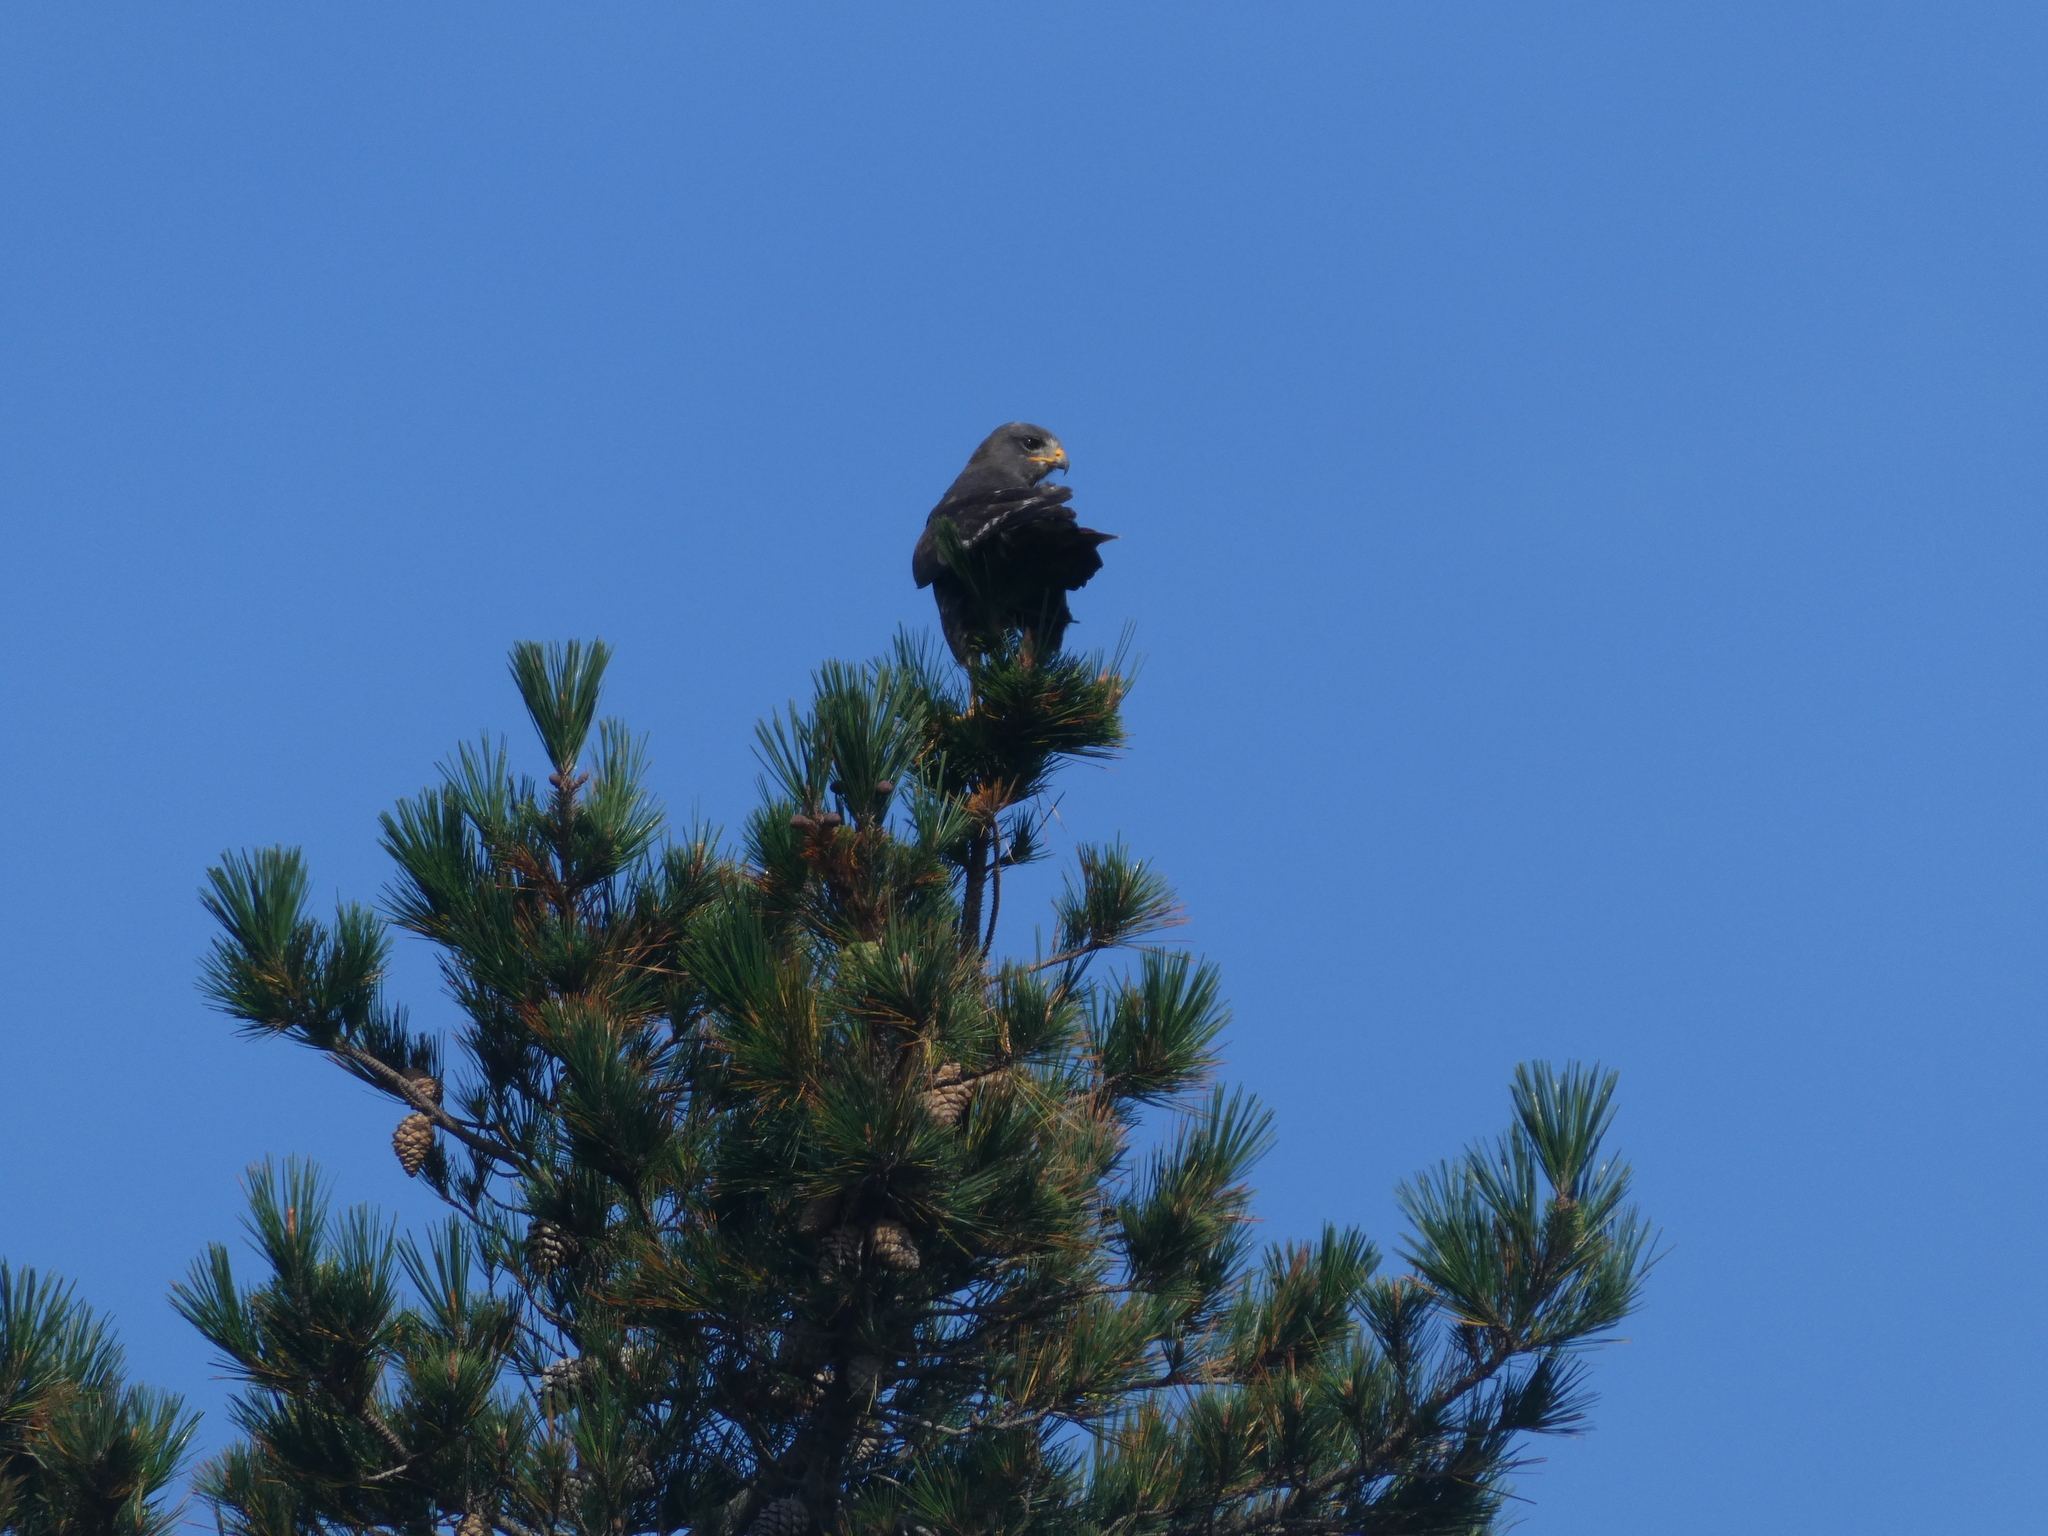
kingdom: Animalia
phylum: Chordata
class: Aves
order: Accipitriformes
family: Accipitridae
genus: Buteo
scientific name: Buteo rufofuscus
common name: Jackal buzzard
